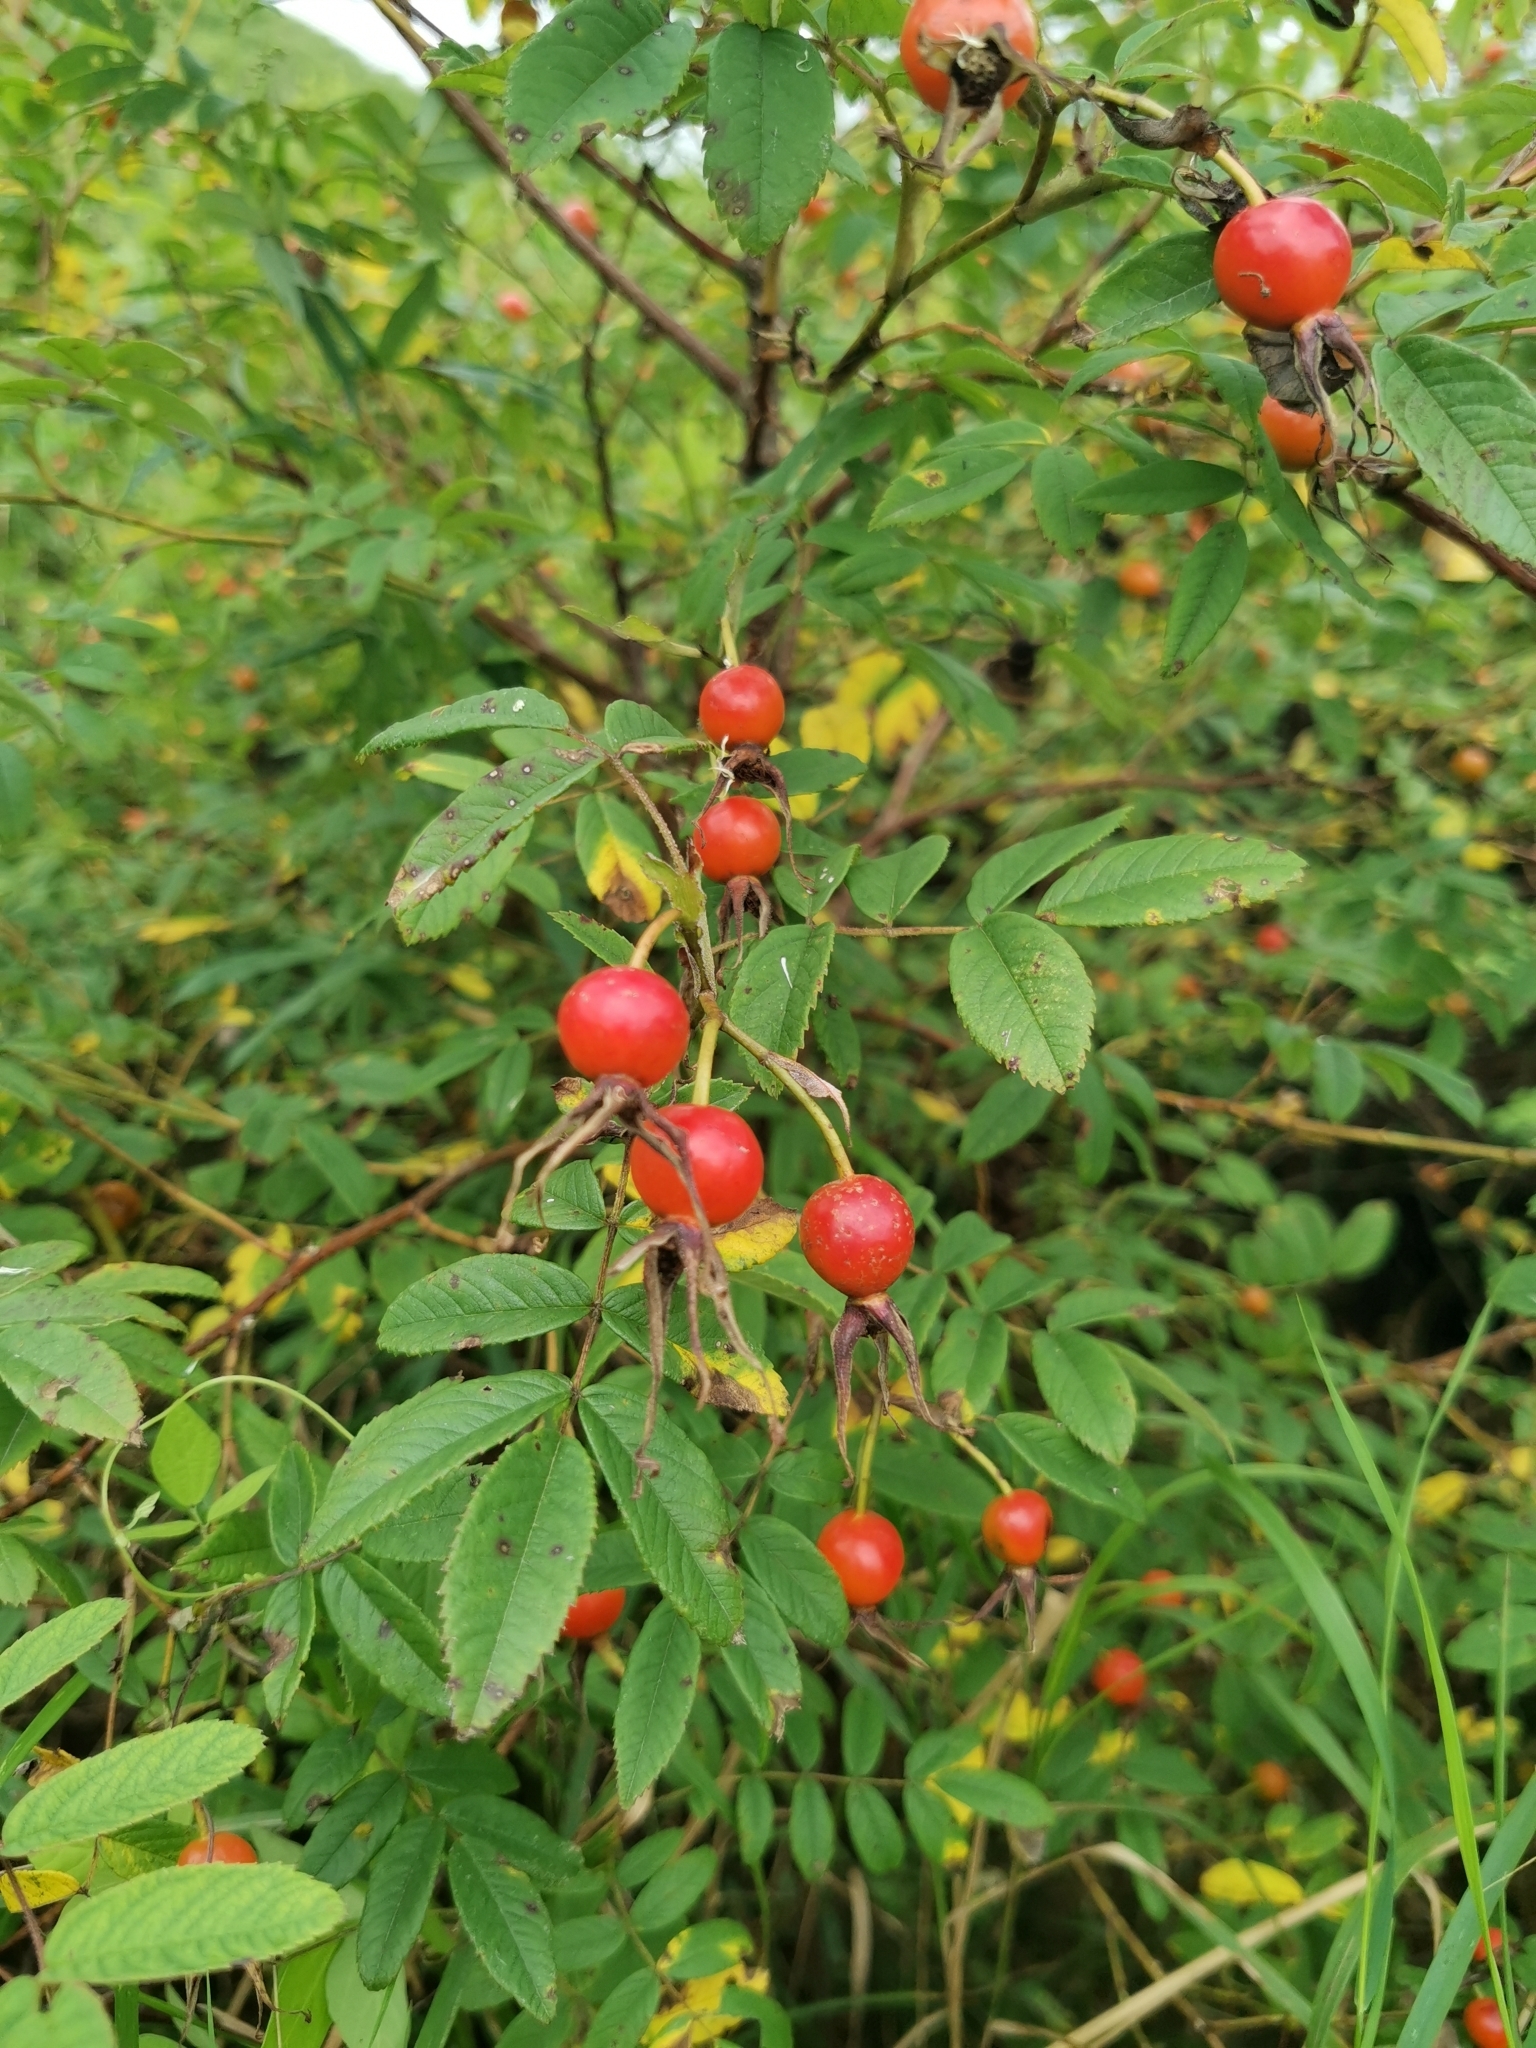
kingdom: Plantae
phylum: Tracheophyta
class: Magnoliopsida
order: Rosales
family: Rosaceae
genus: Rosa
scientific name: Rosa davurica
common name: Amur rose
